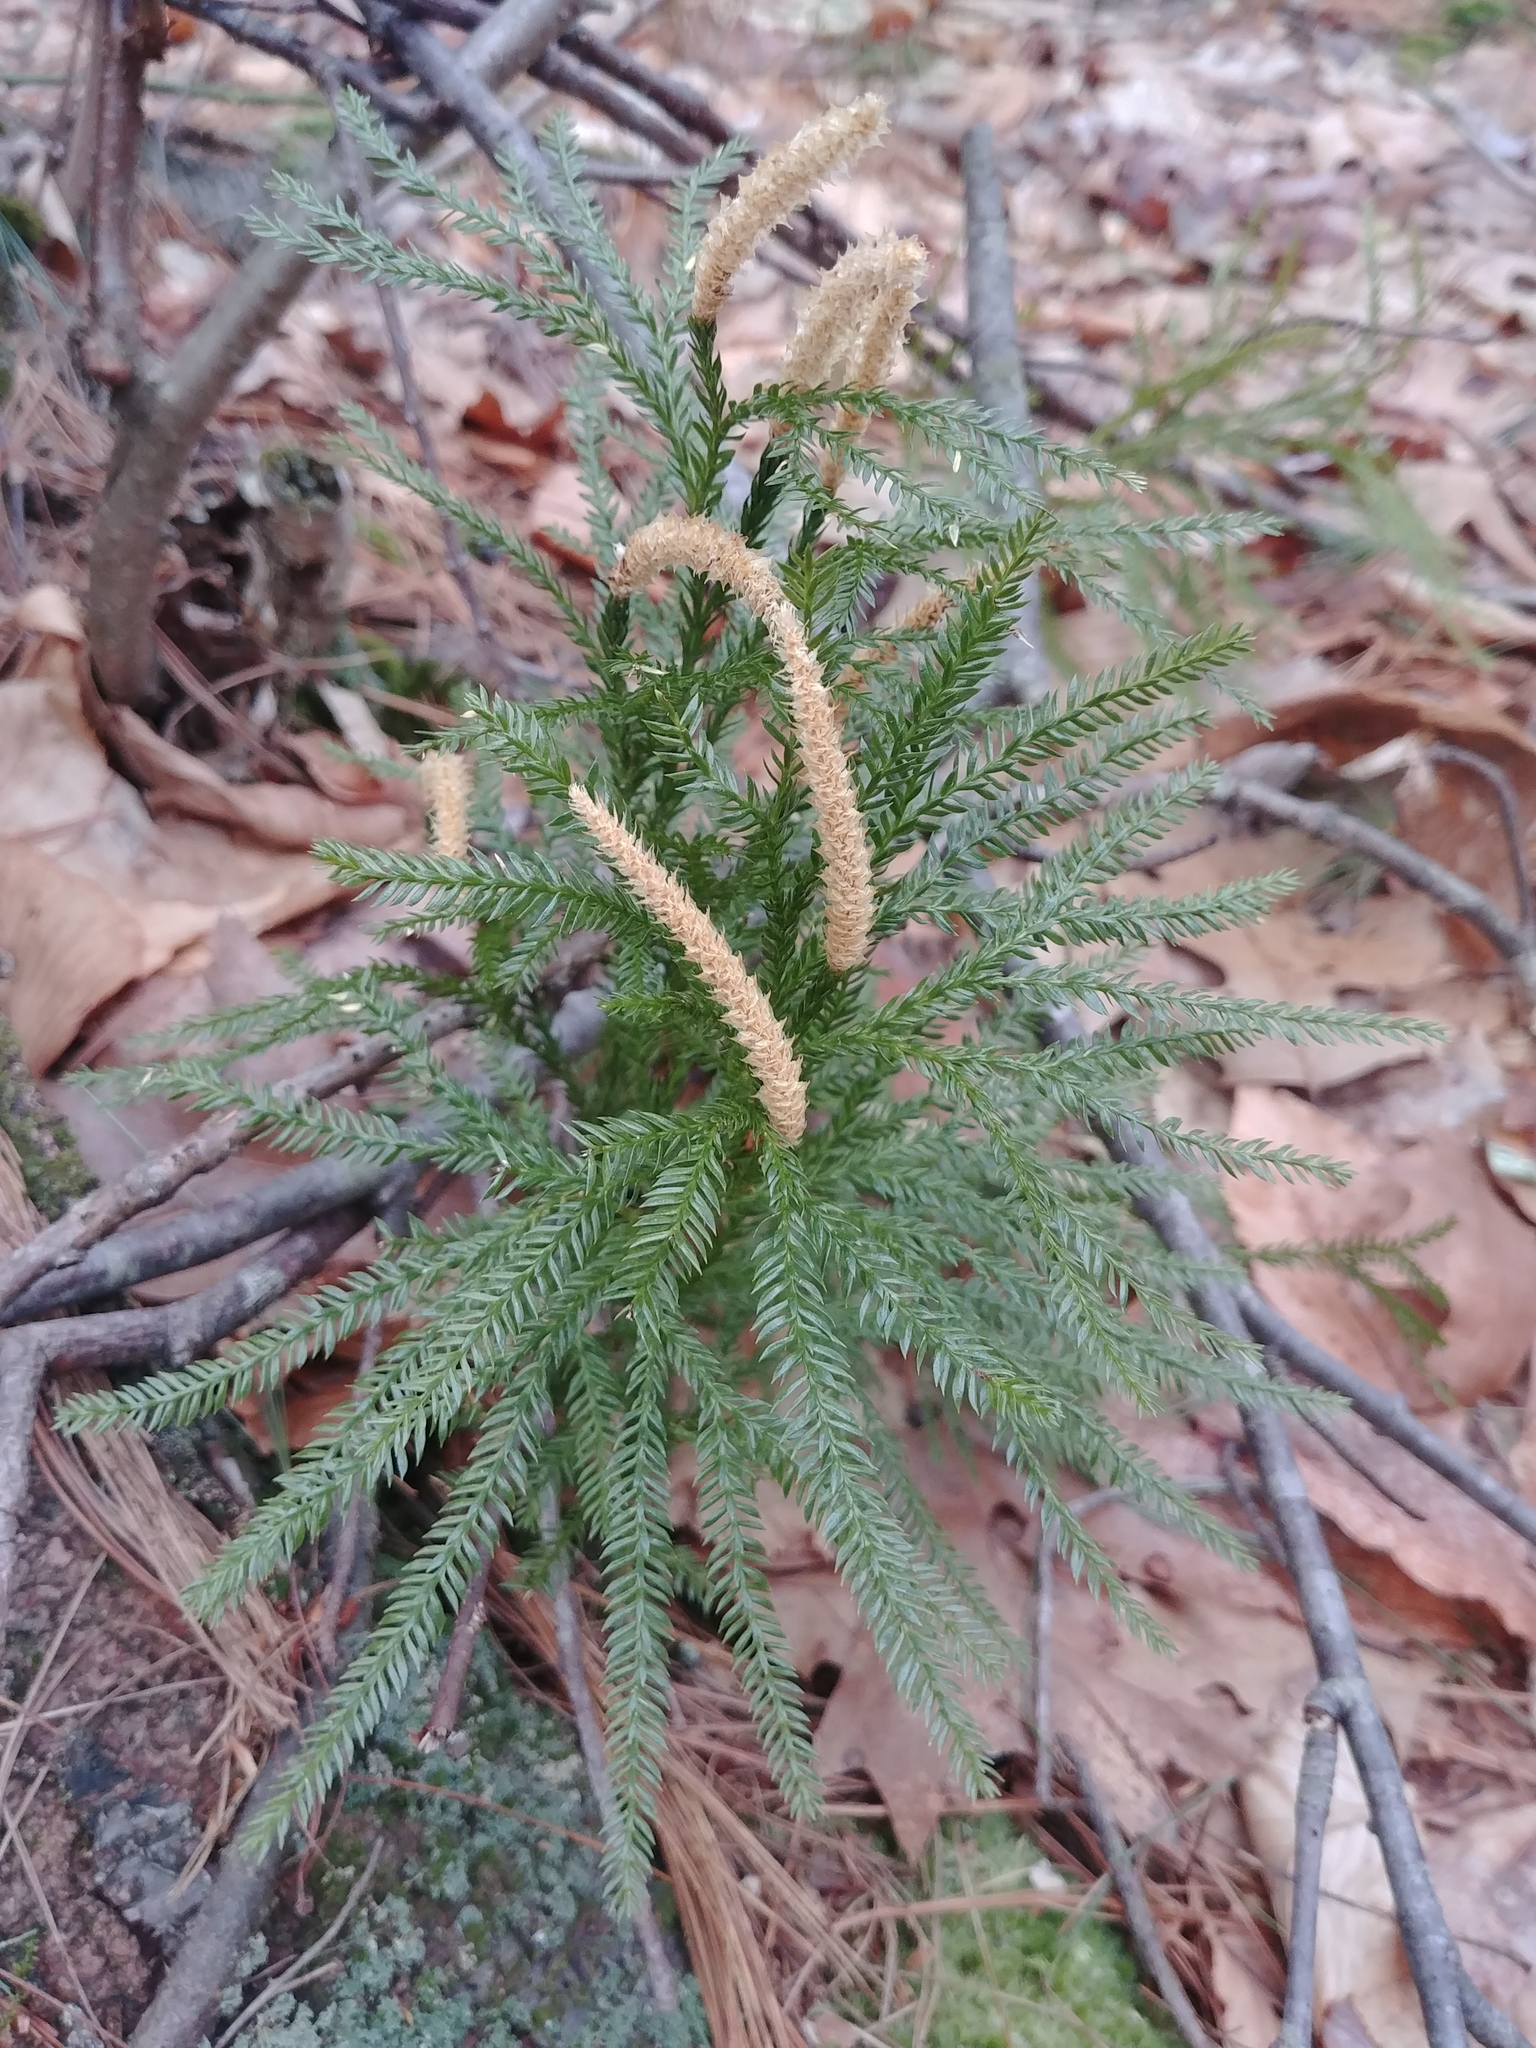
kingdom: Plantae
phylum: Tracheophyta
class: Lycopodiopsida
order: Lycopodiales
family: Lycopodiaceae
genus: Dendrolycopodium
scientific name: Dendrolycopodium obscurum
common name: Common ground-pine
